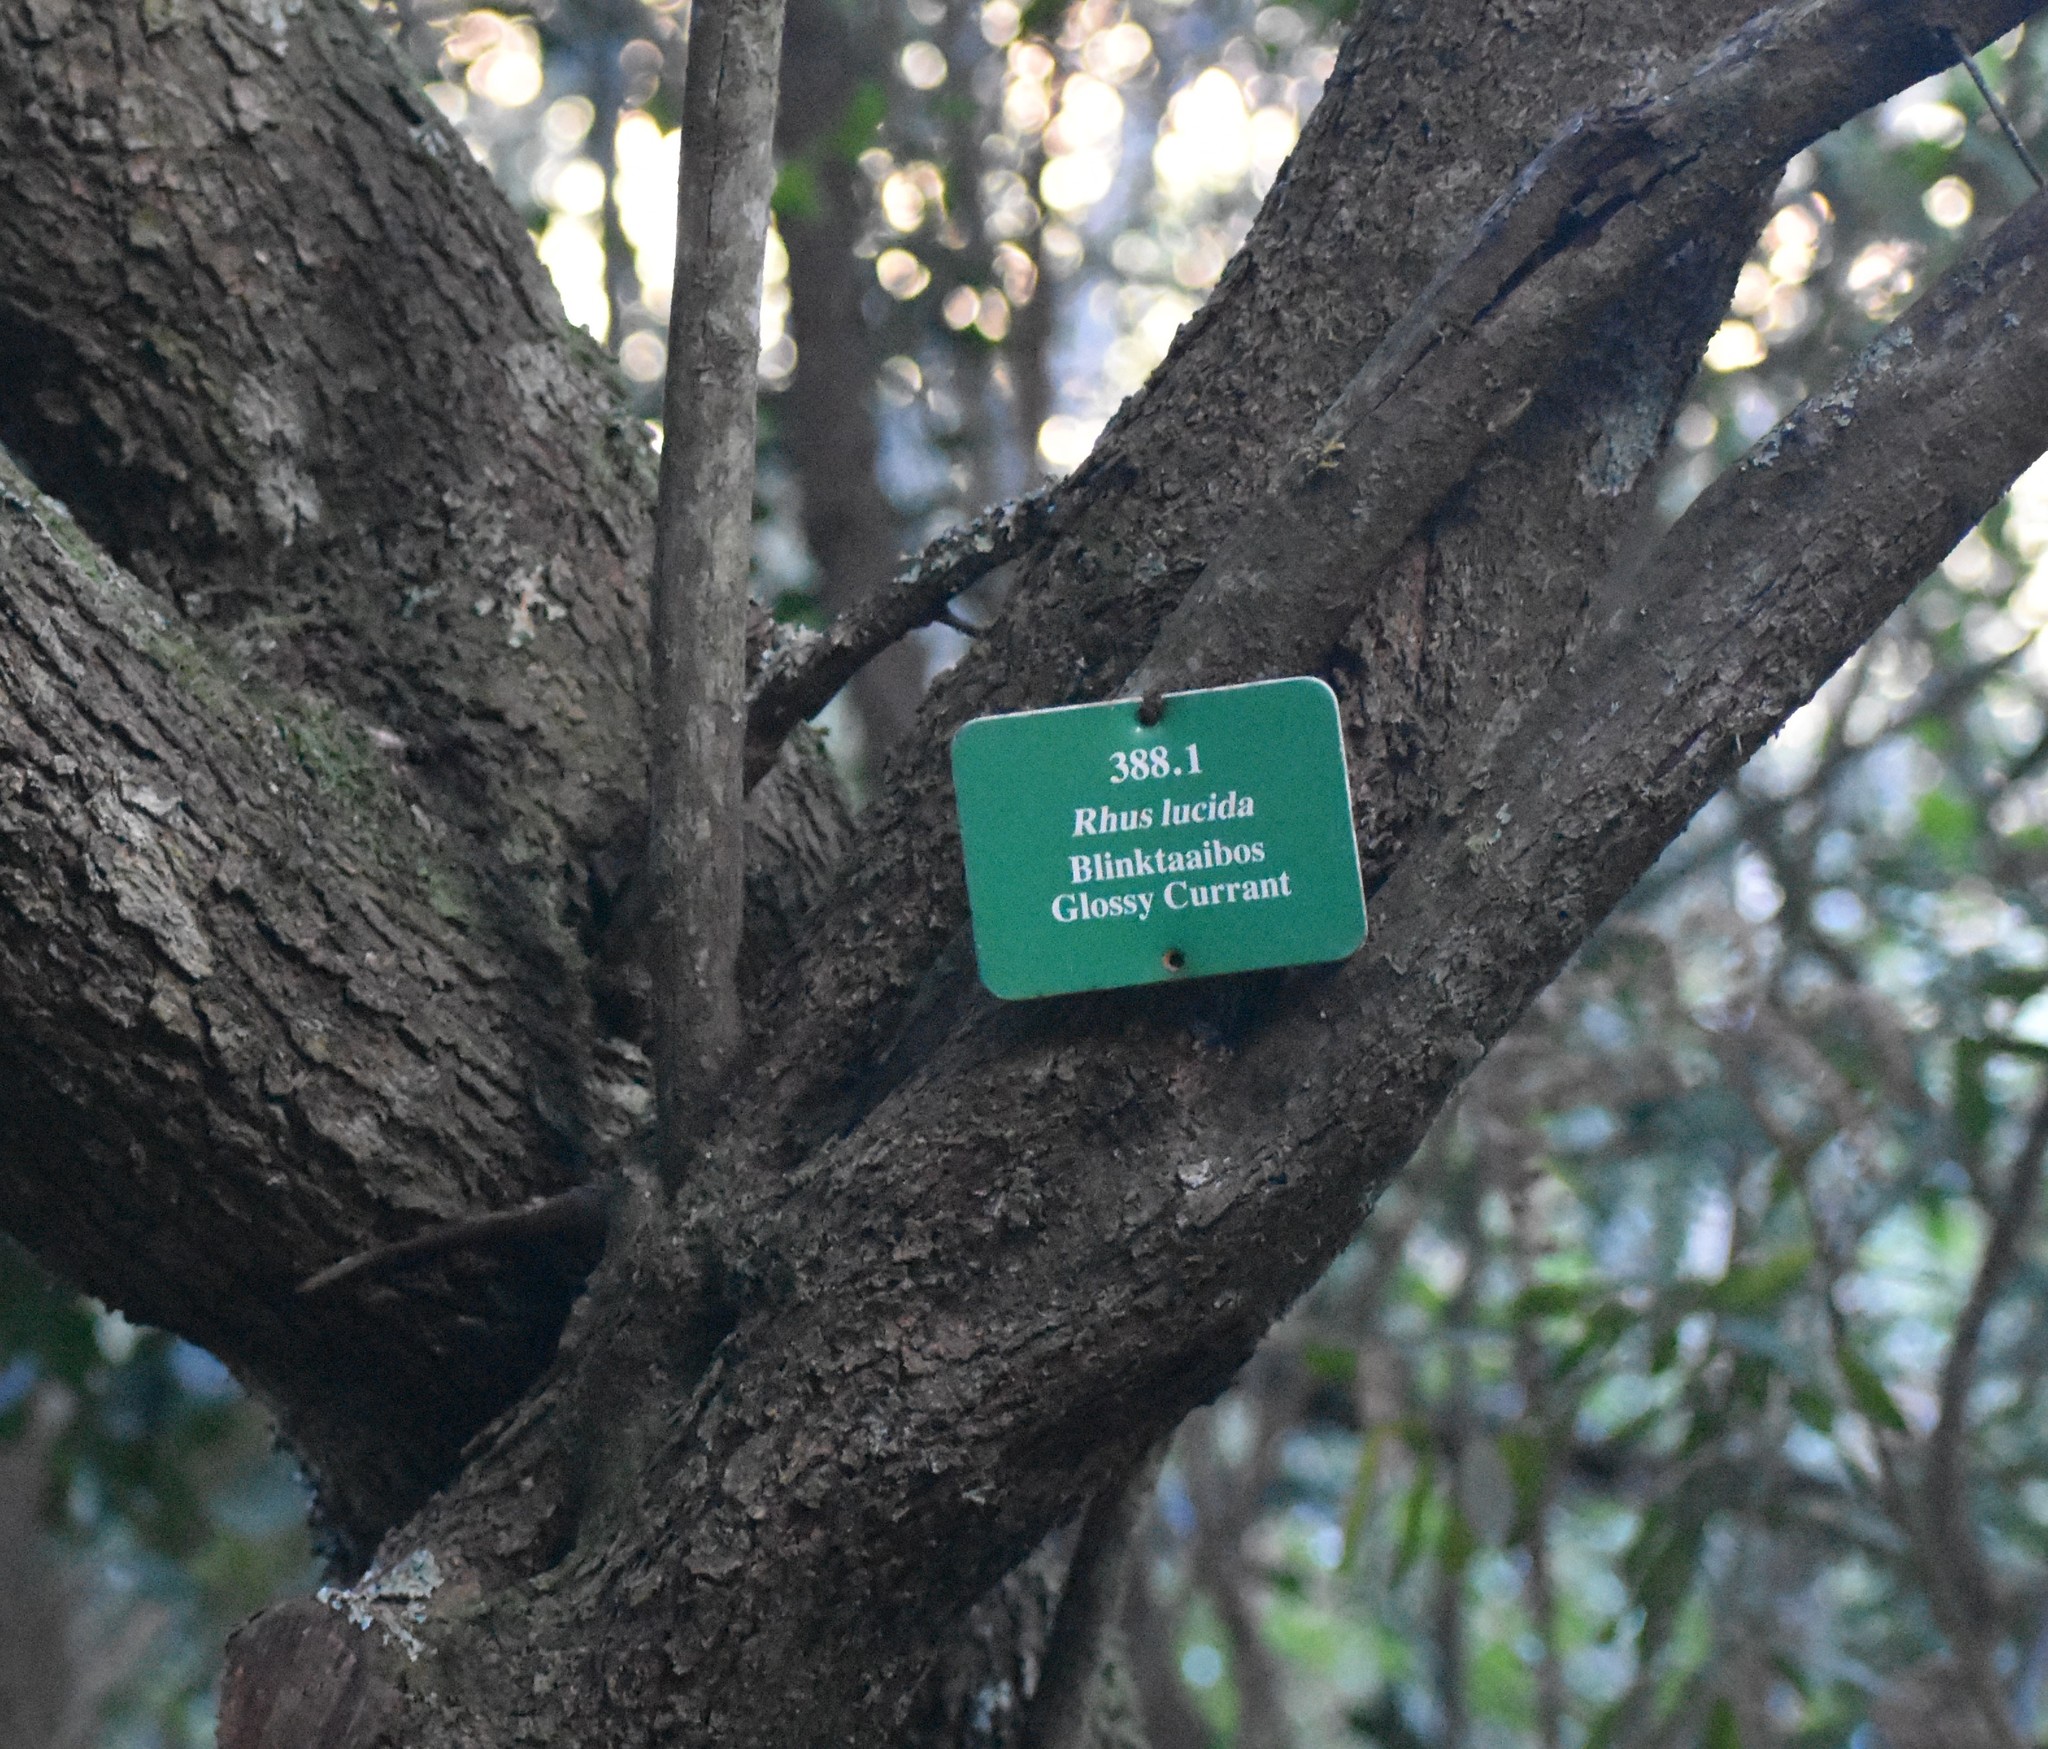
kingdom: Plantae
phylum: Tracheophyta
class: Magnoliopsida
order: Sapindales
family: Anacardiaceae
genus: Searsia
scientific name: Searsia lucida
